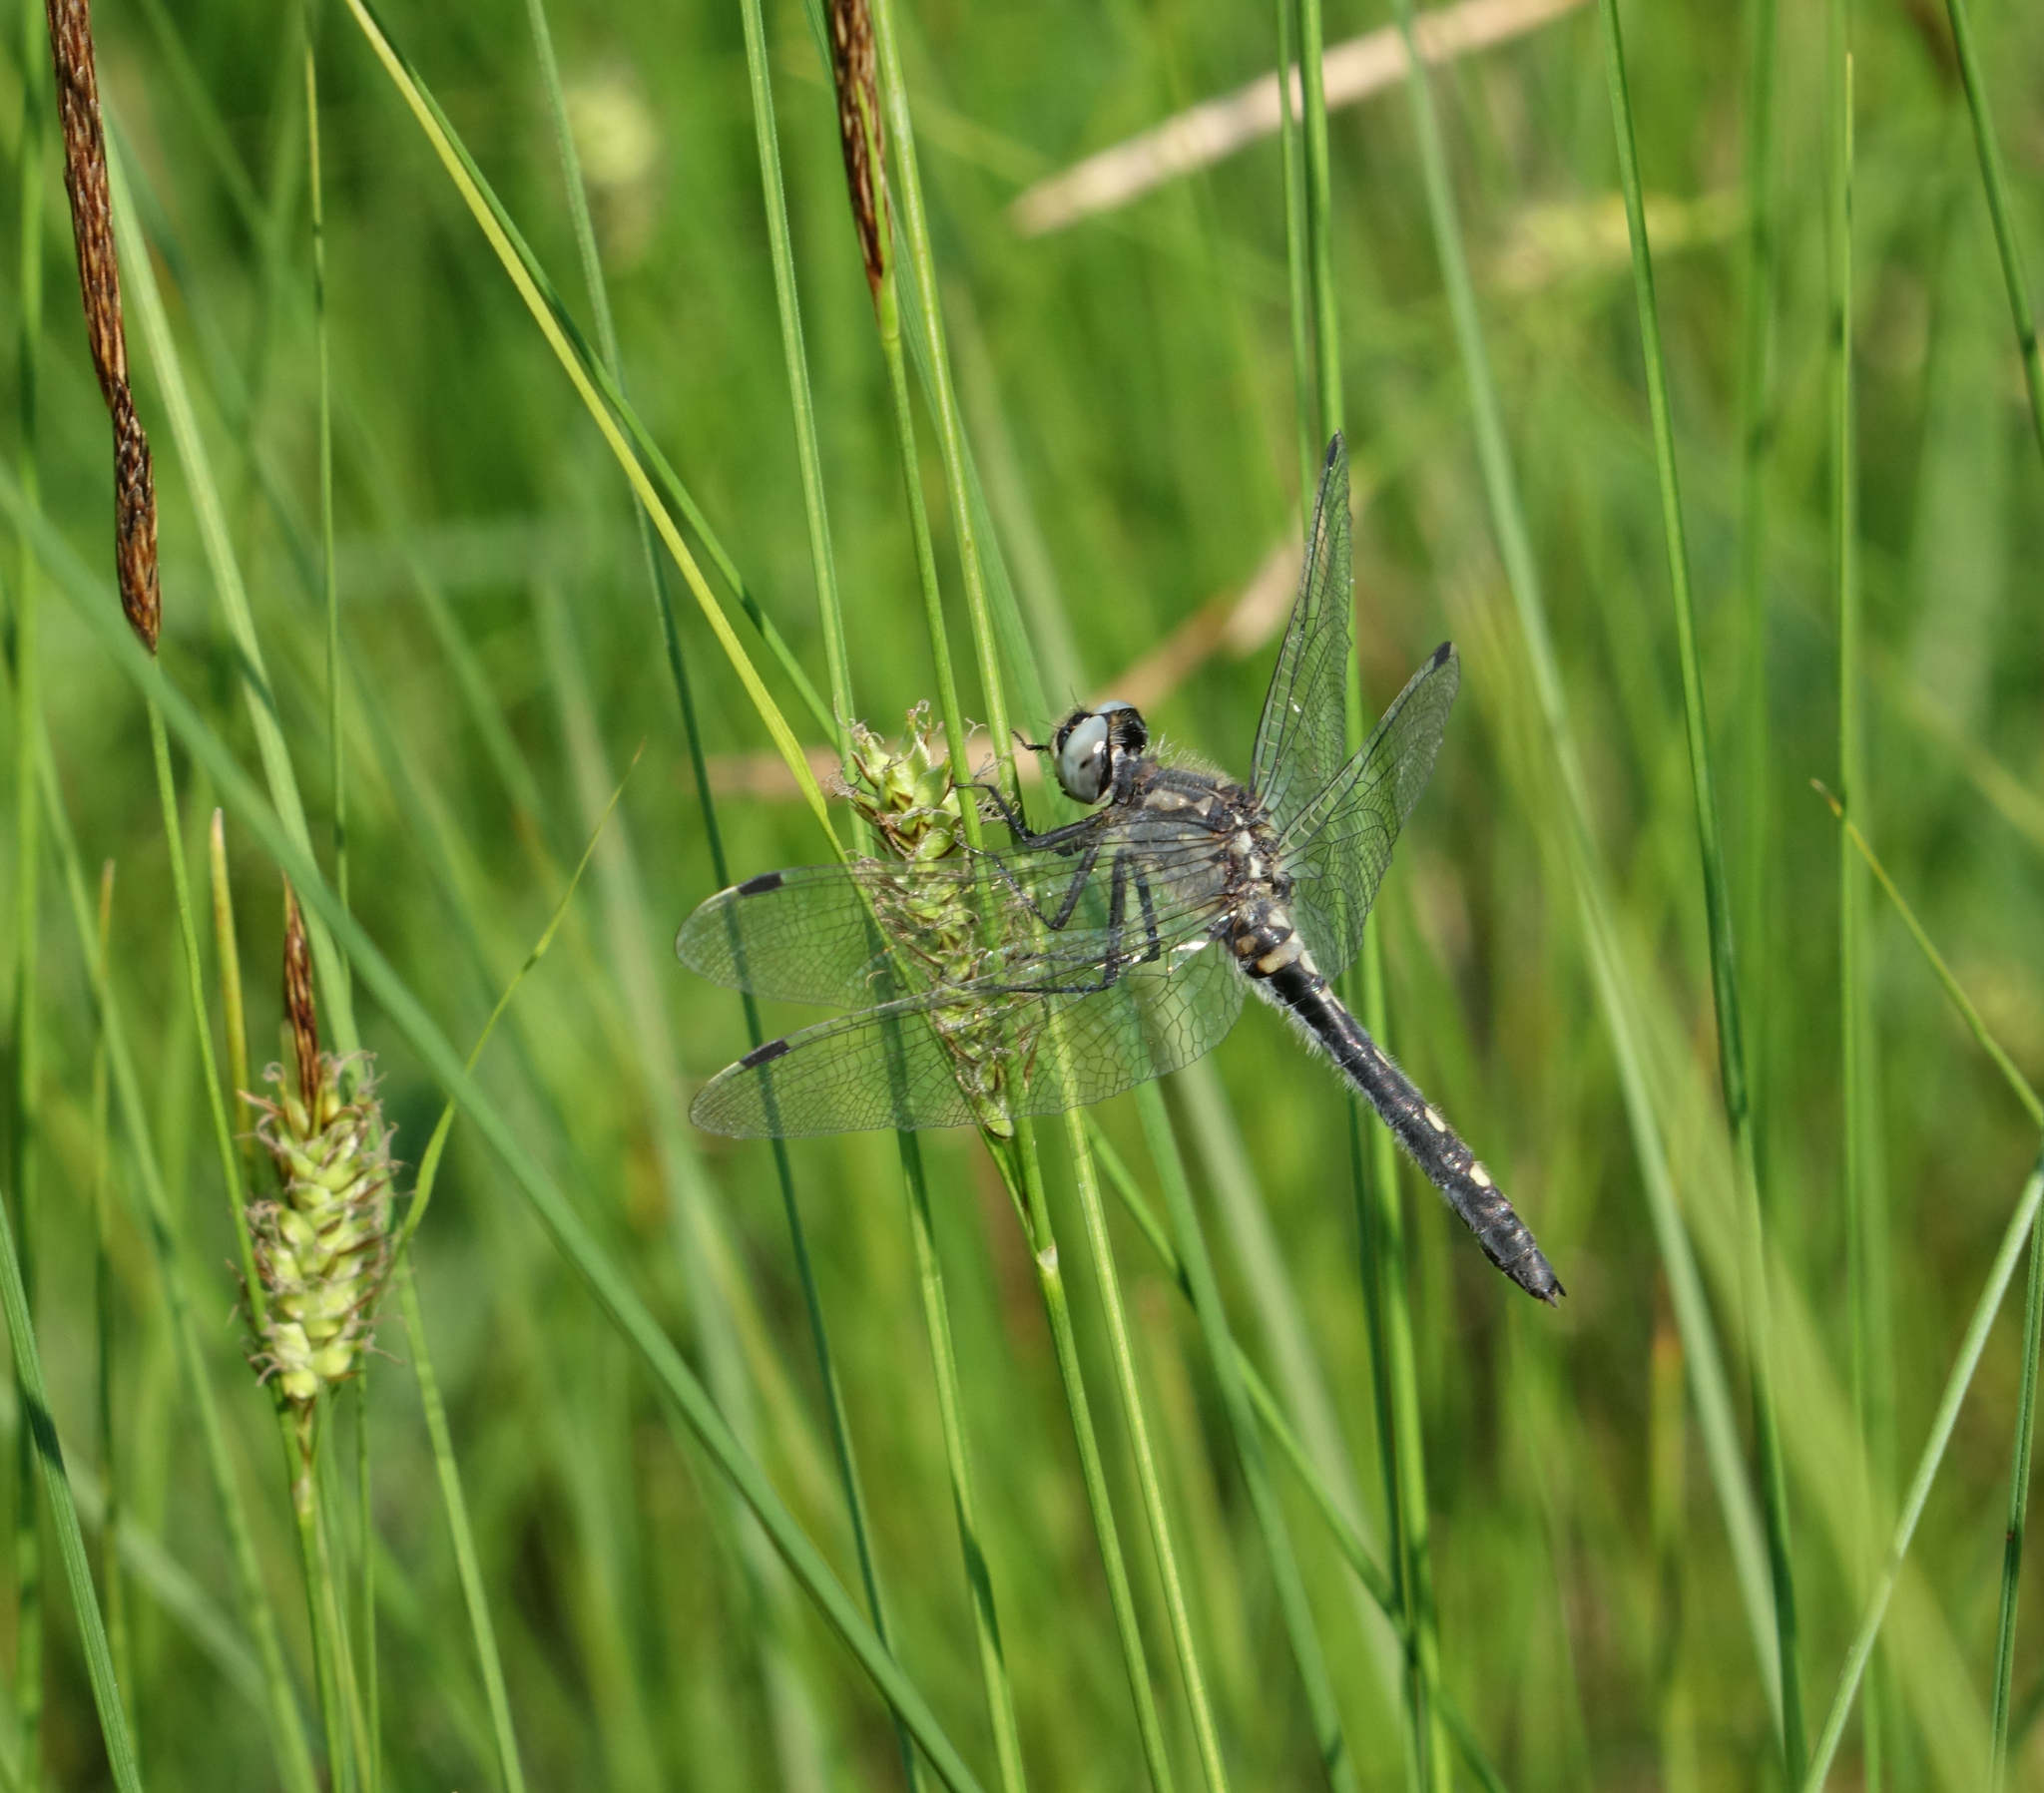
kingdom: Plantae
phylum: Tracheophyta
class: Liliopsida
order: Poales
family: Cyperaceae
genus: Carex
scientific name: Carex lasiocarpa
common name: Slender sedge
